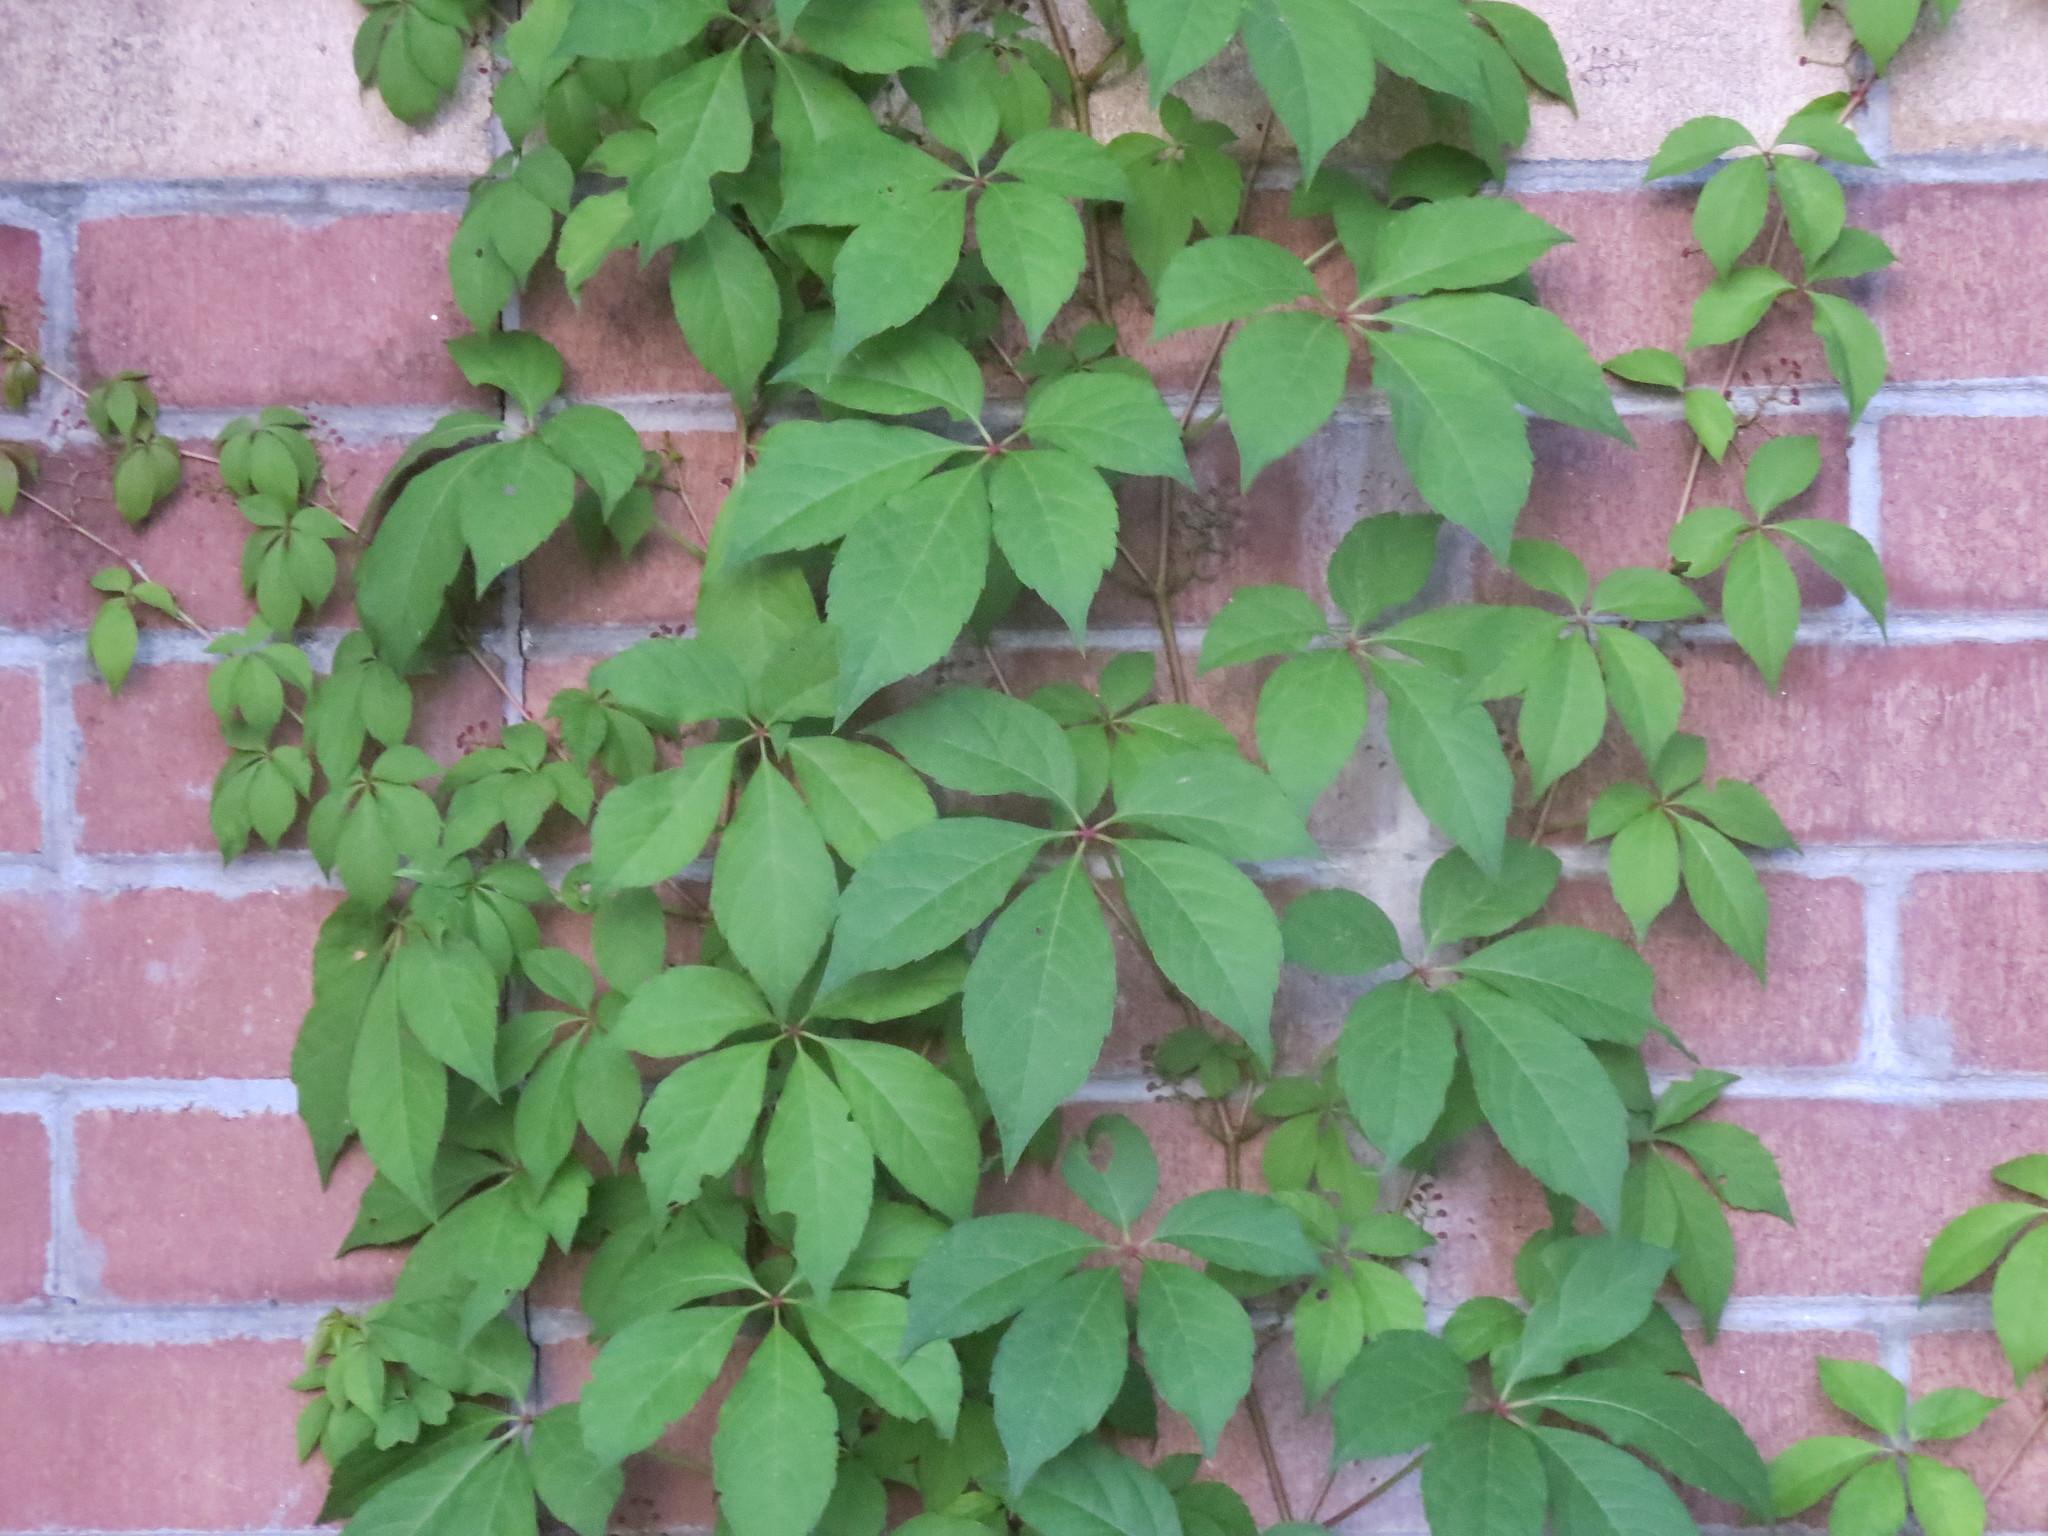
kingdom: Plantae
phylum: Tracheophyta
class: Magnoliopsida
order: Vitales
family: Vitaceae
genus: Parthenocissus
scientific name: Parthenocissus quinquefolia
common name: Virginia-creeper
